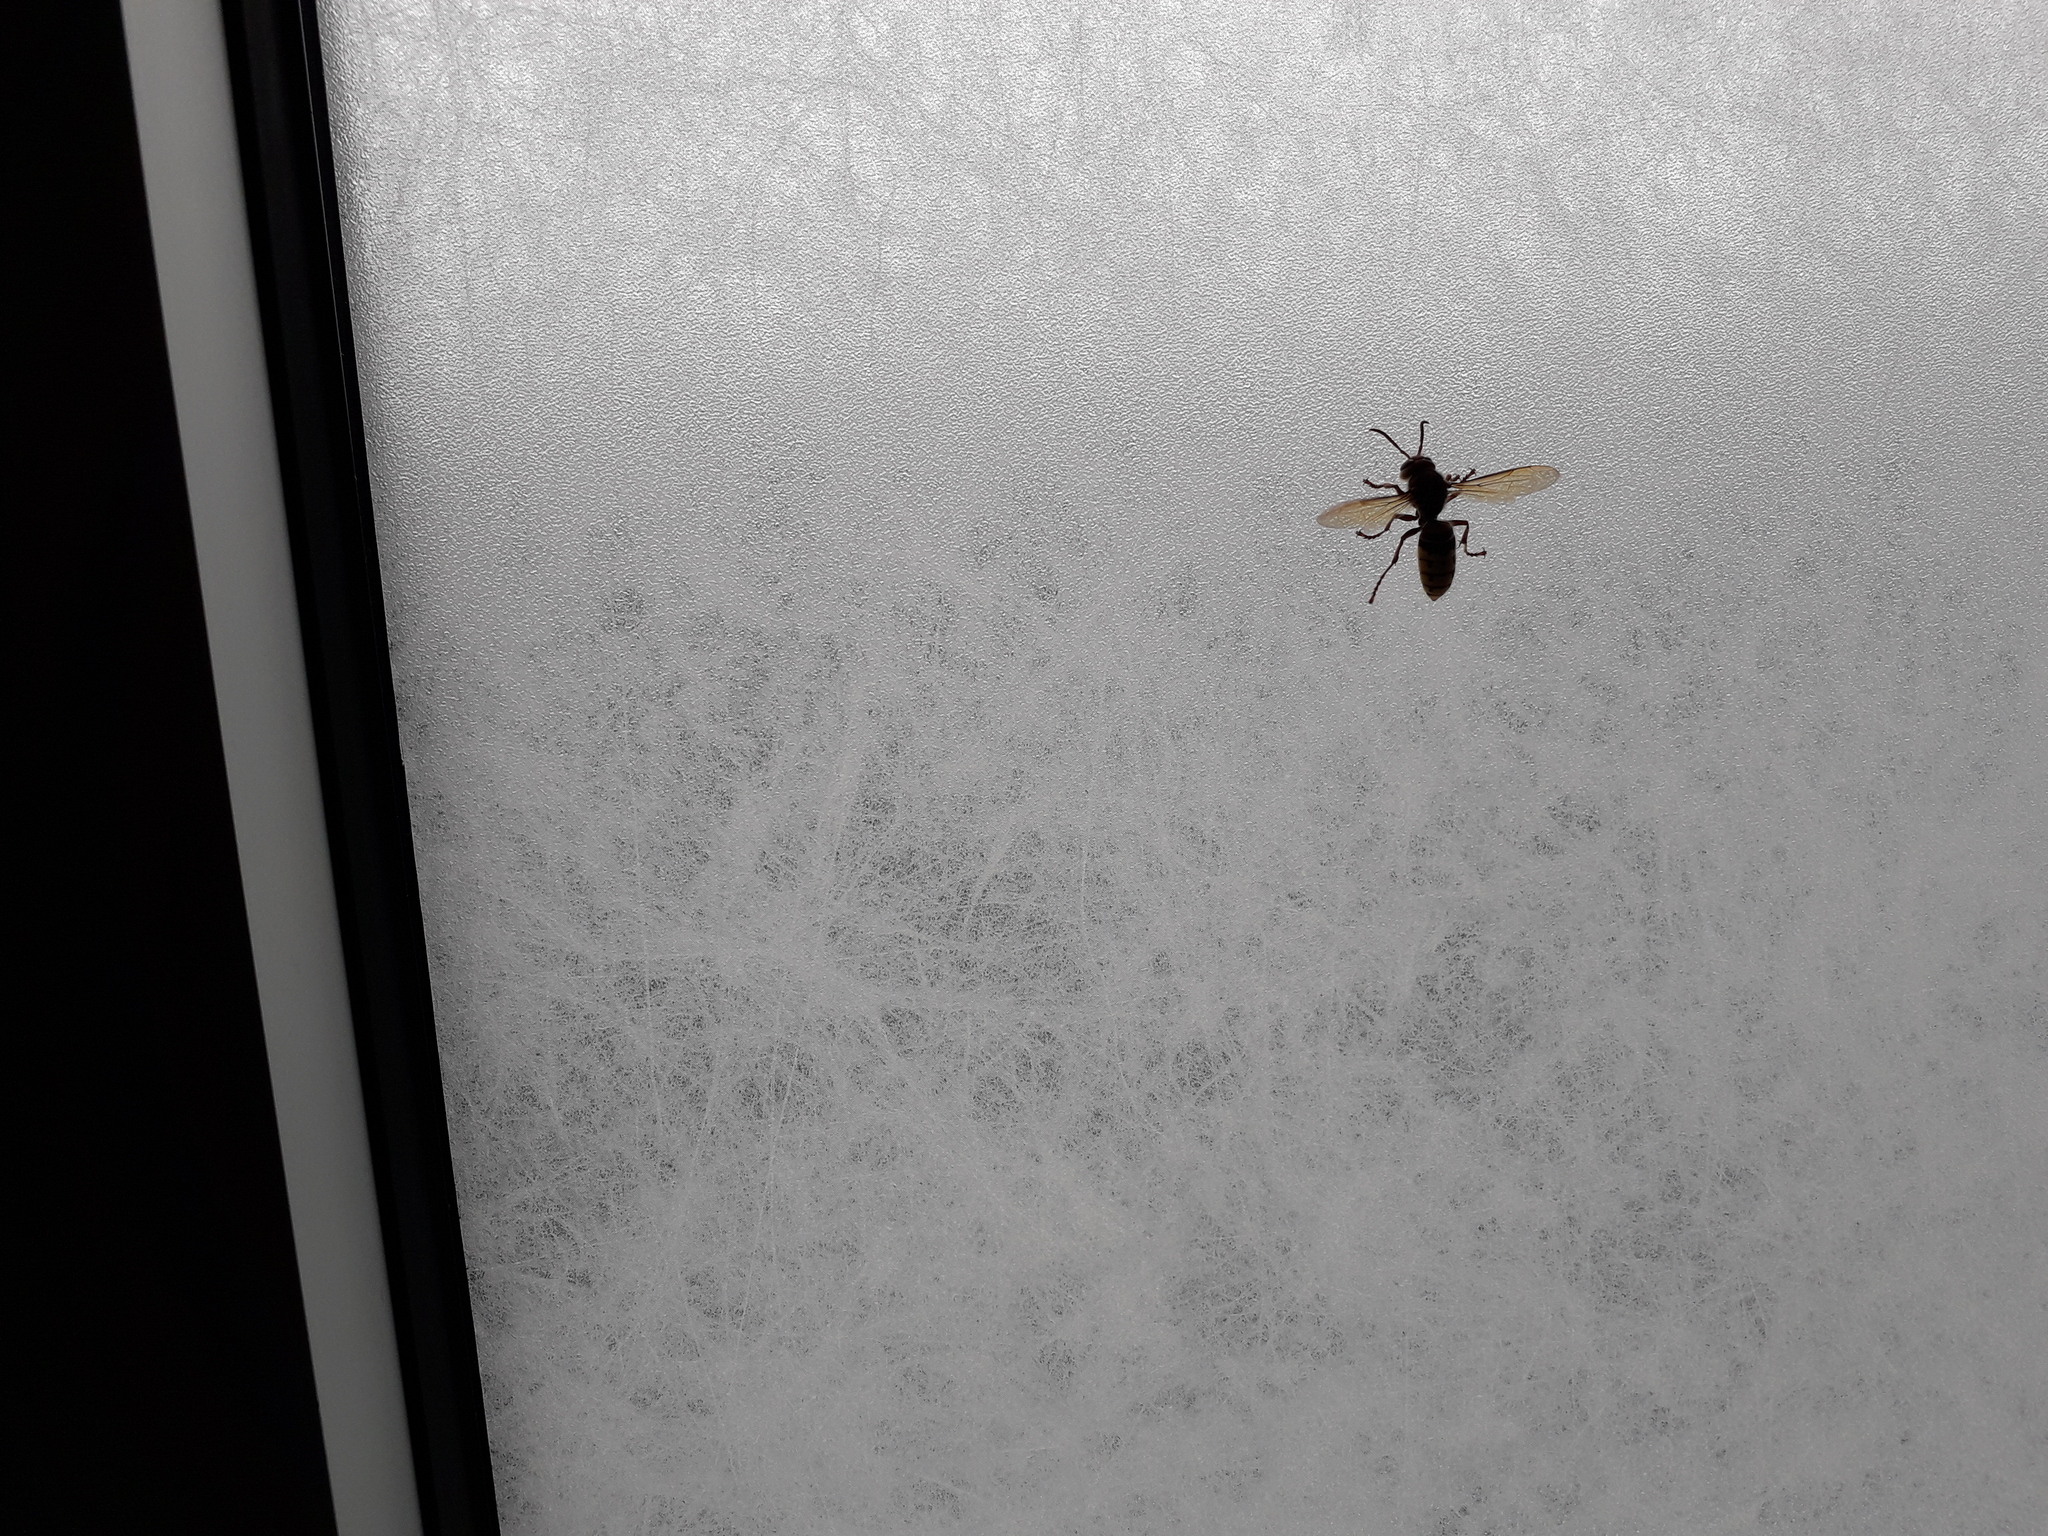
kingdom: Animalia
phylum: Arthropoda
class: Insecta
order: Hymenoptera
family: Vespidae
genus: Vespa
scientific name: Vespa crabro
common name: Hornet
